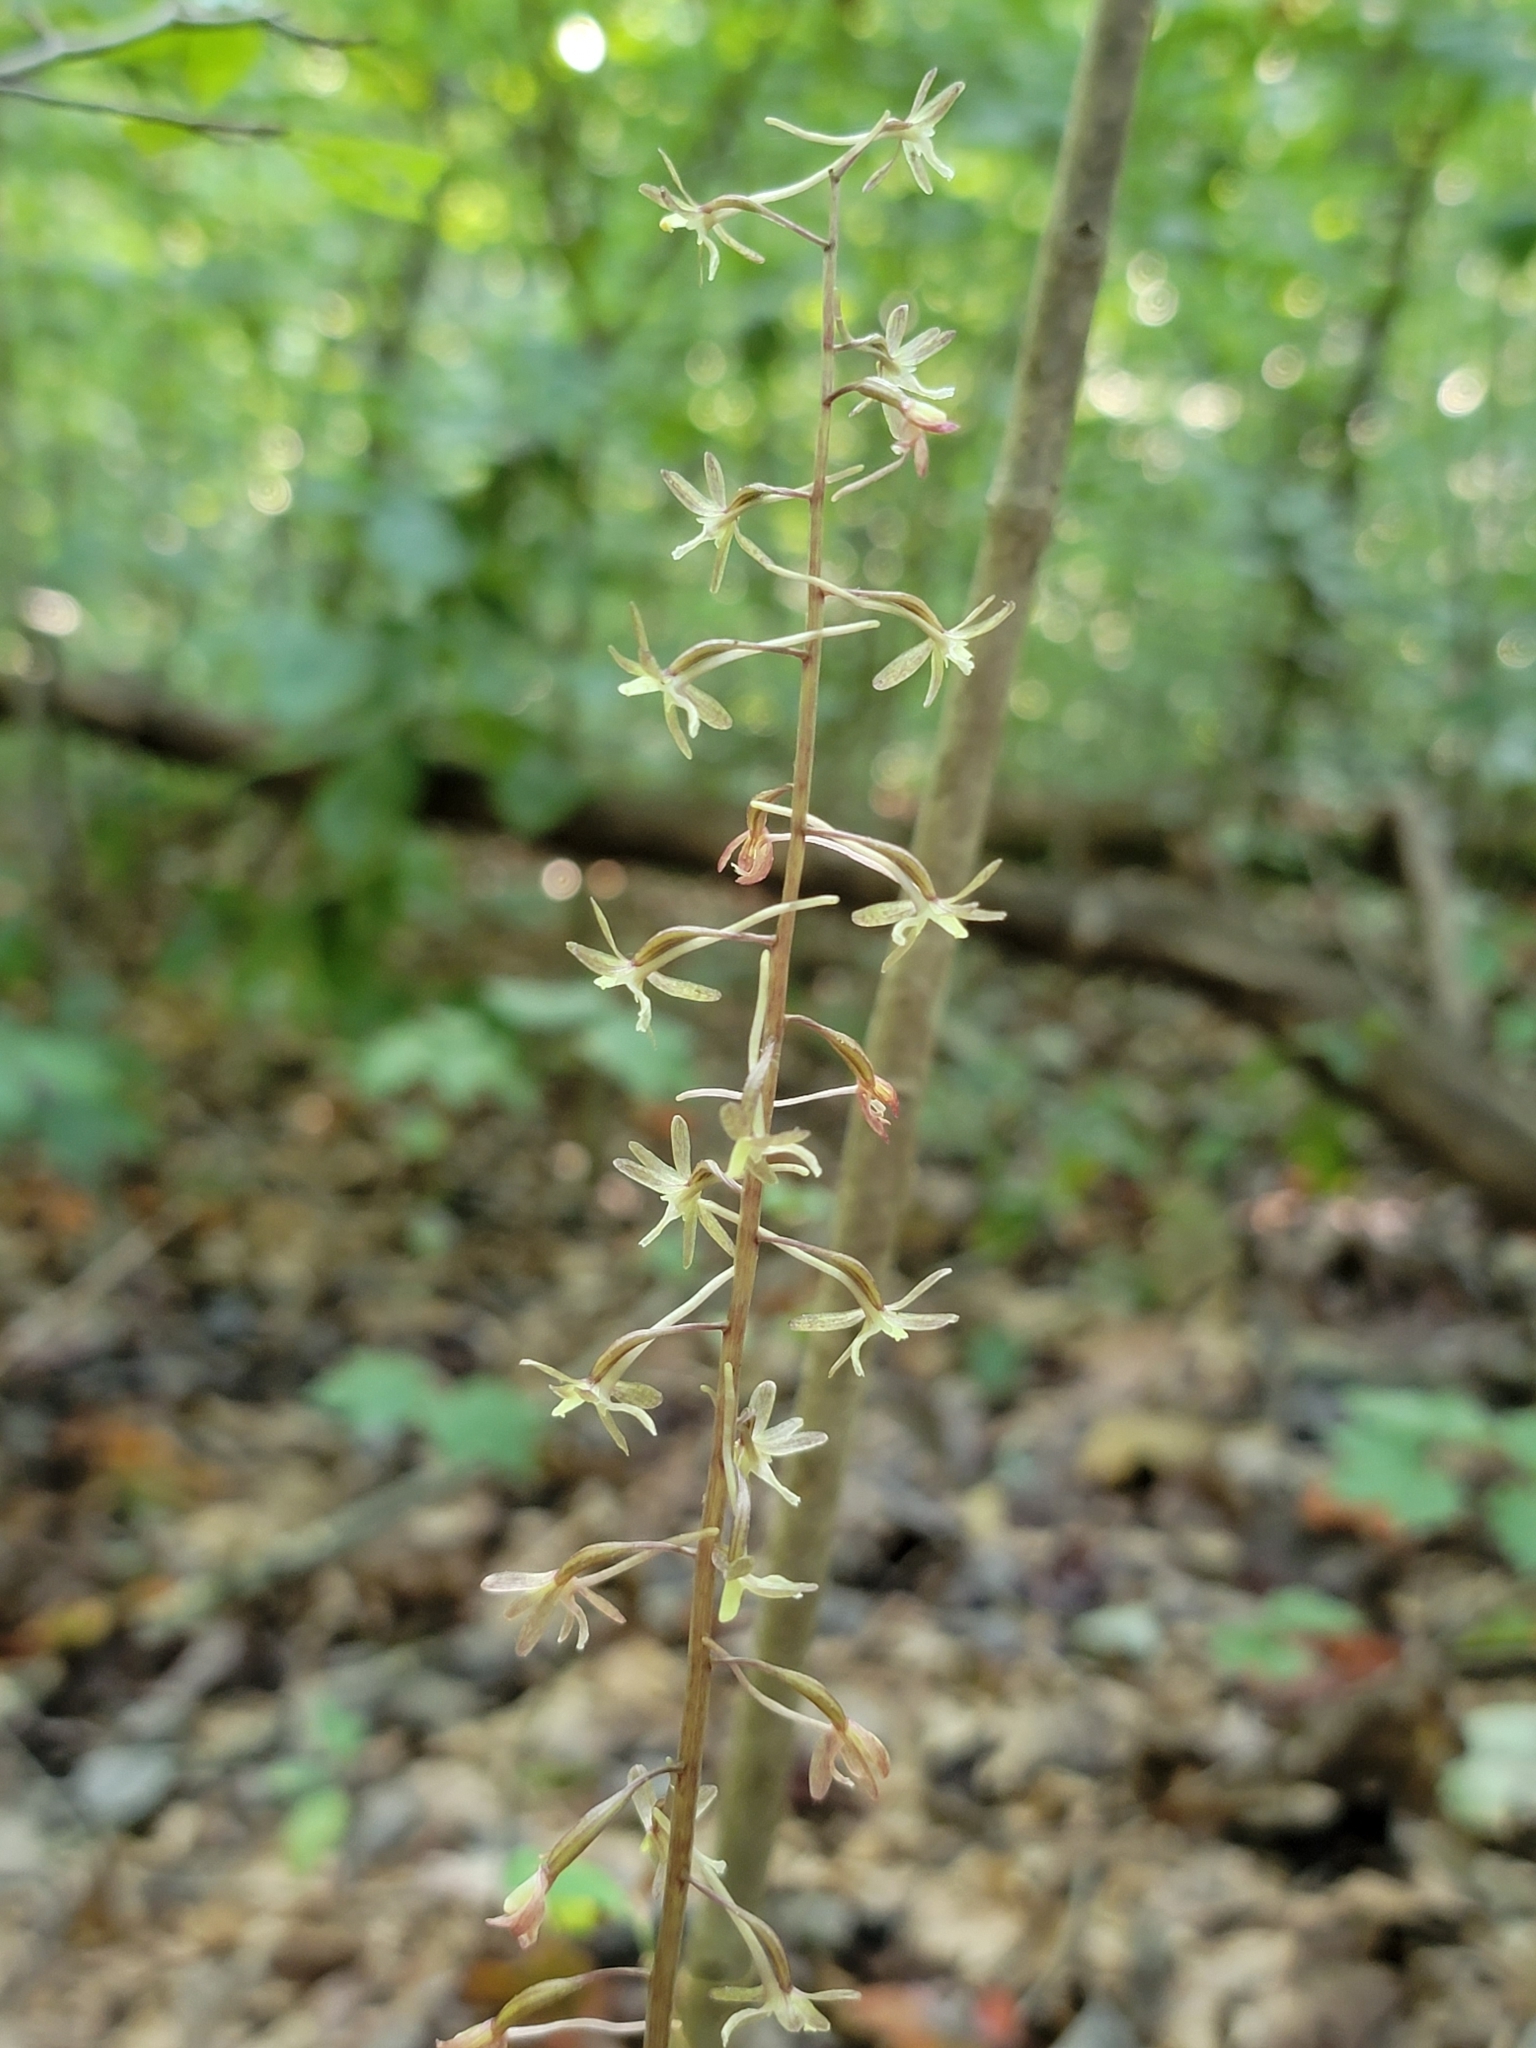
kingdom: Plantae
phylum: Tracheophyta
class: Liliopsida
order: Asparagales
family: Orchidaceae
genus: Tipularia
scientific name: Tipularia discolor
